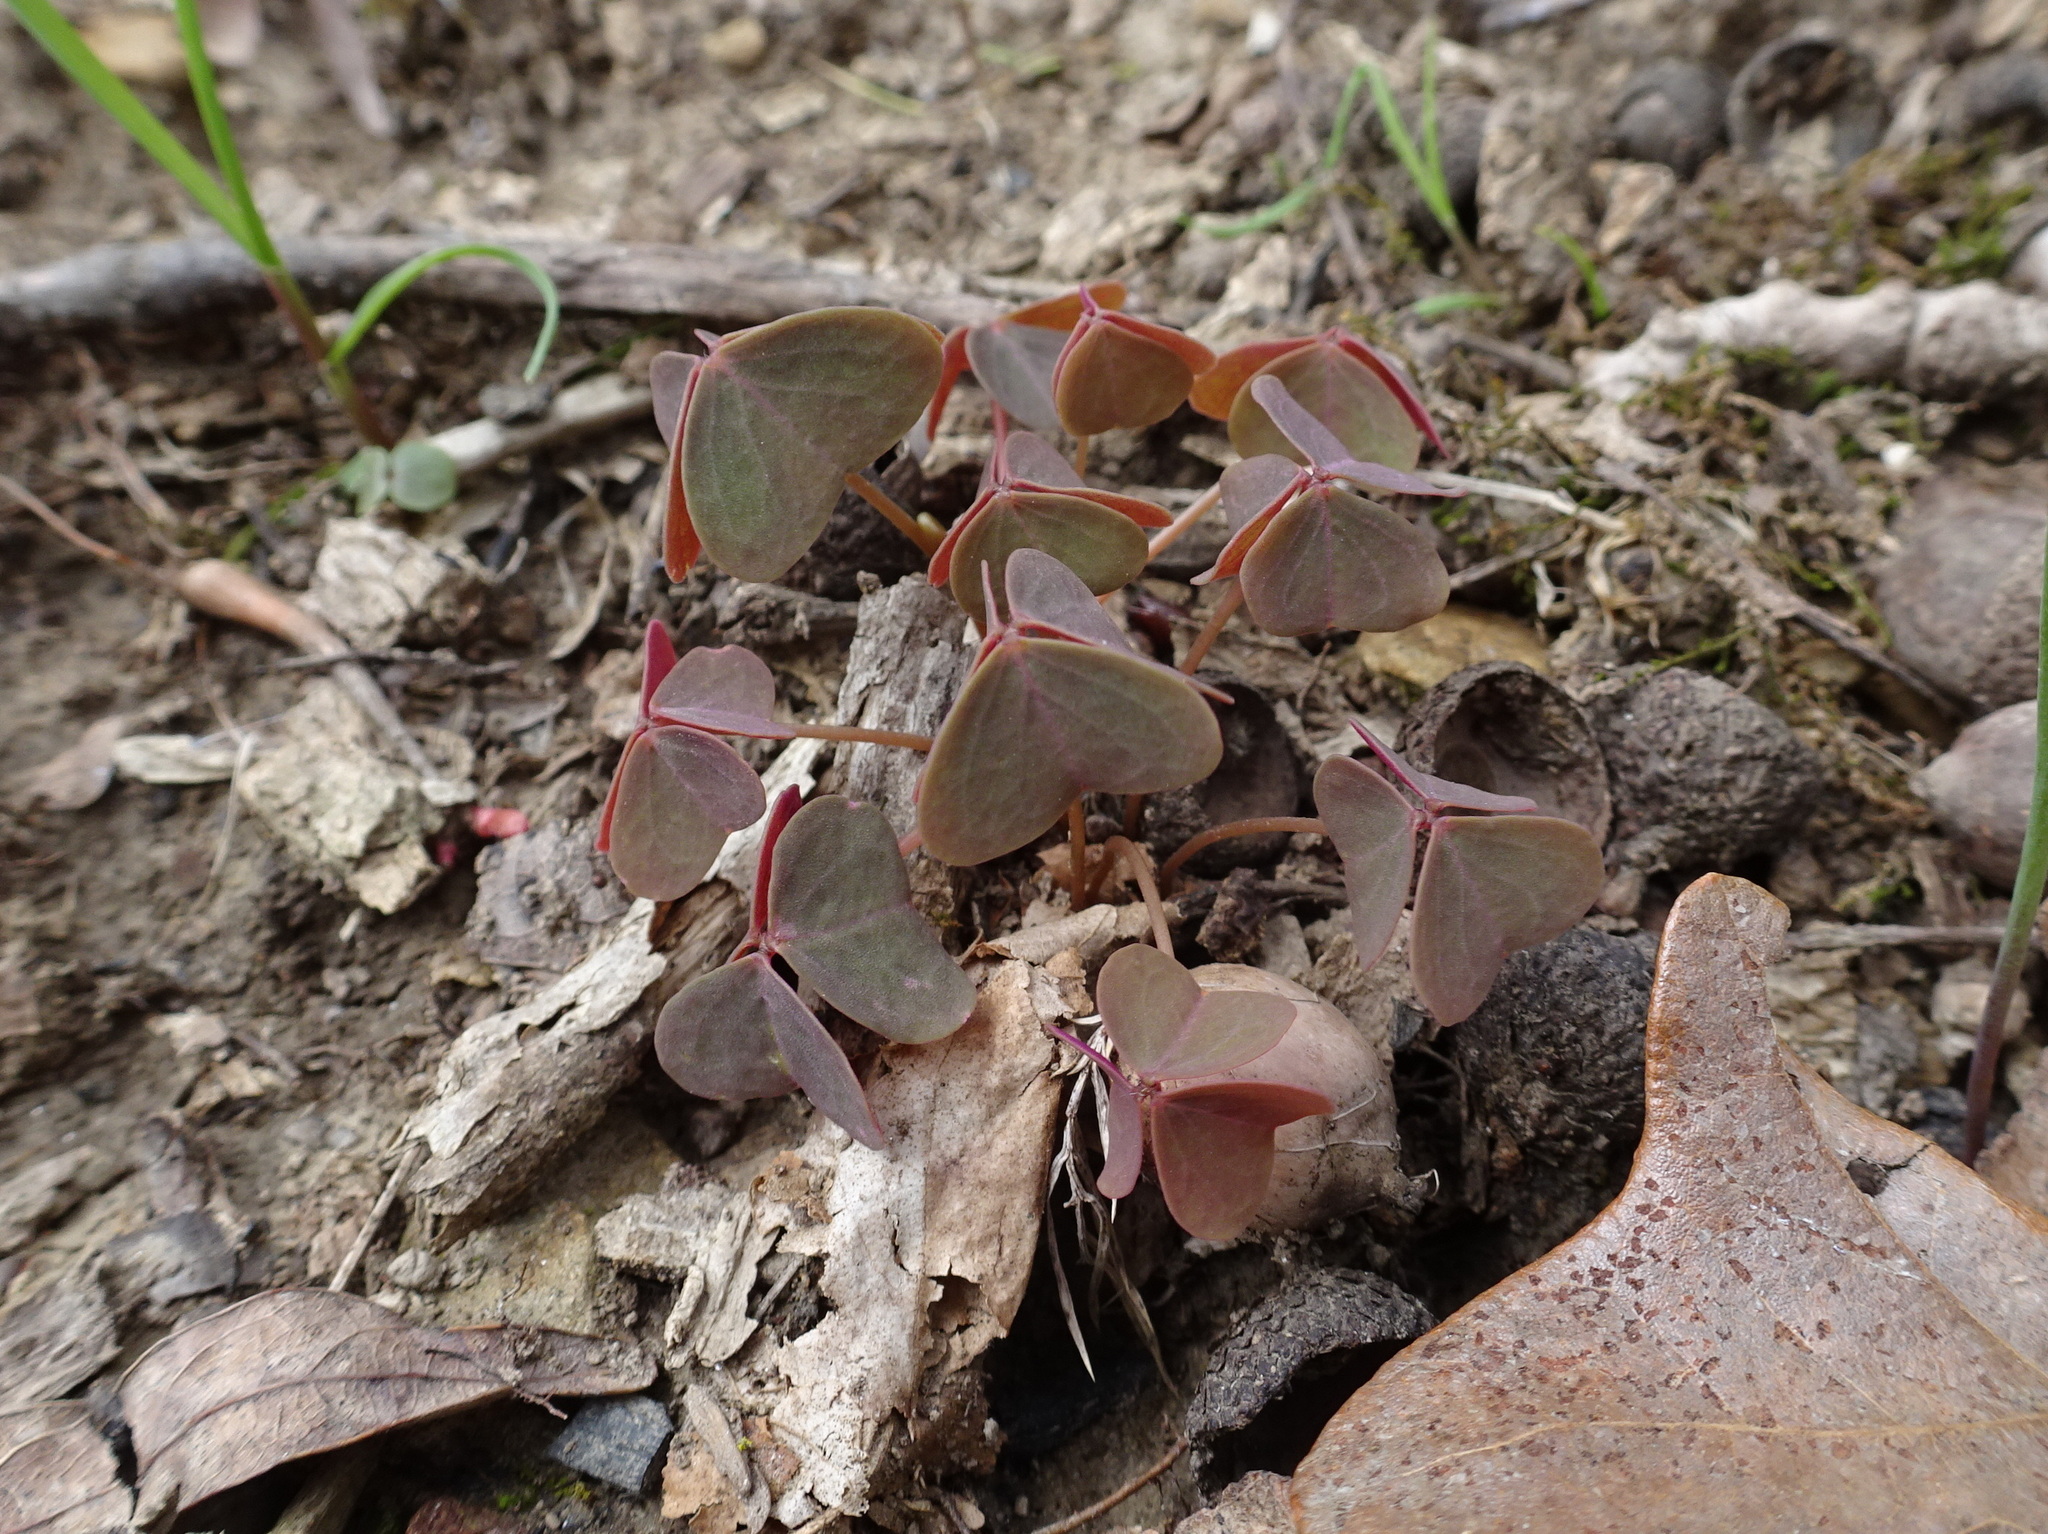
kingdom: Plantae
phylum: Tracheophyta
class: Magnoliopsida
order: Oxalidales
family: Oxalidaceae
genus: Oxalis
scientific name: Oxalis violacea
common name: Violet wood-sorrel
